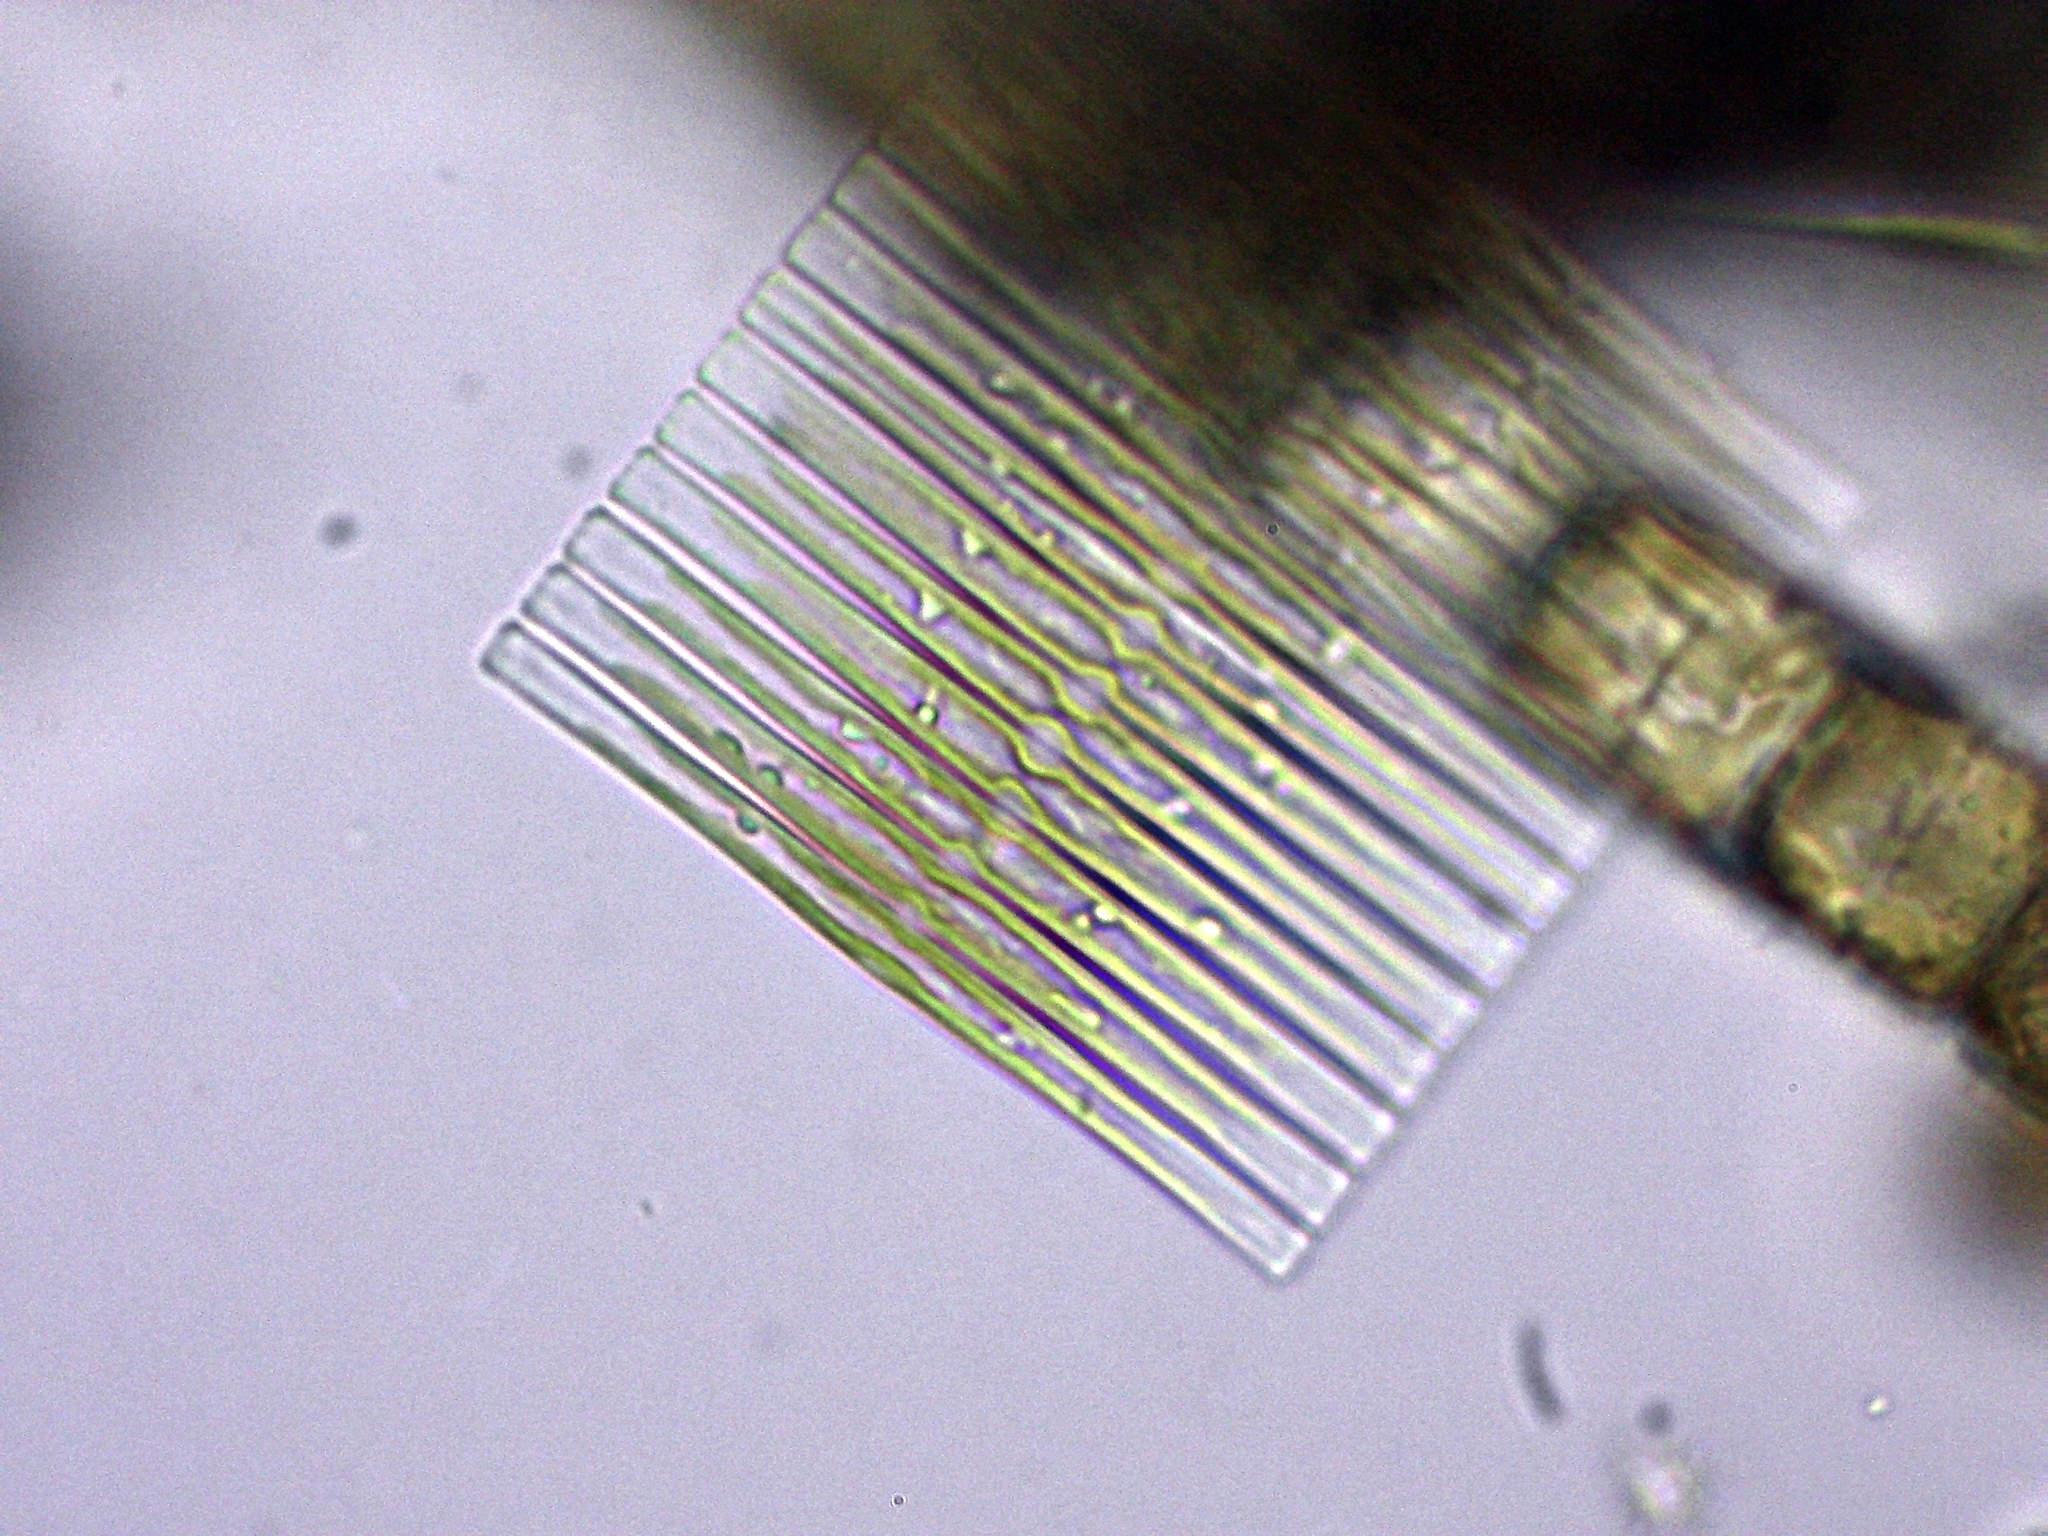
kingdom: Chromista
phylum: Ochrophyta
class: Bacillariophyceae
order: Fragilariales
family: Fragilariaceae
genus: Fragilaria
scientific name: Fragilaria crotonensis
